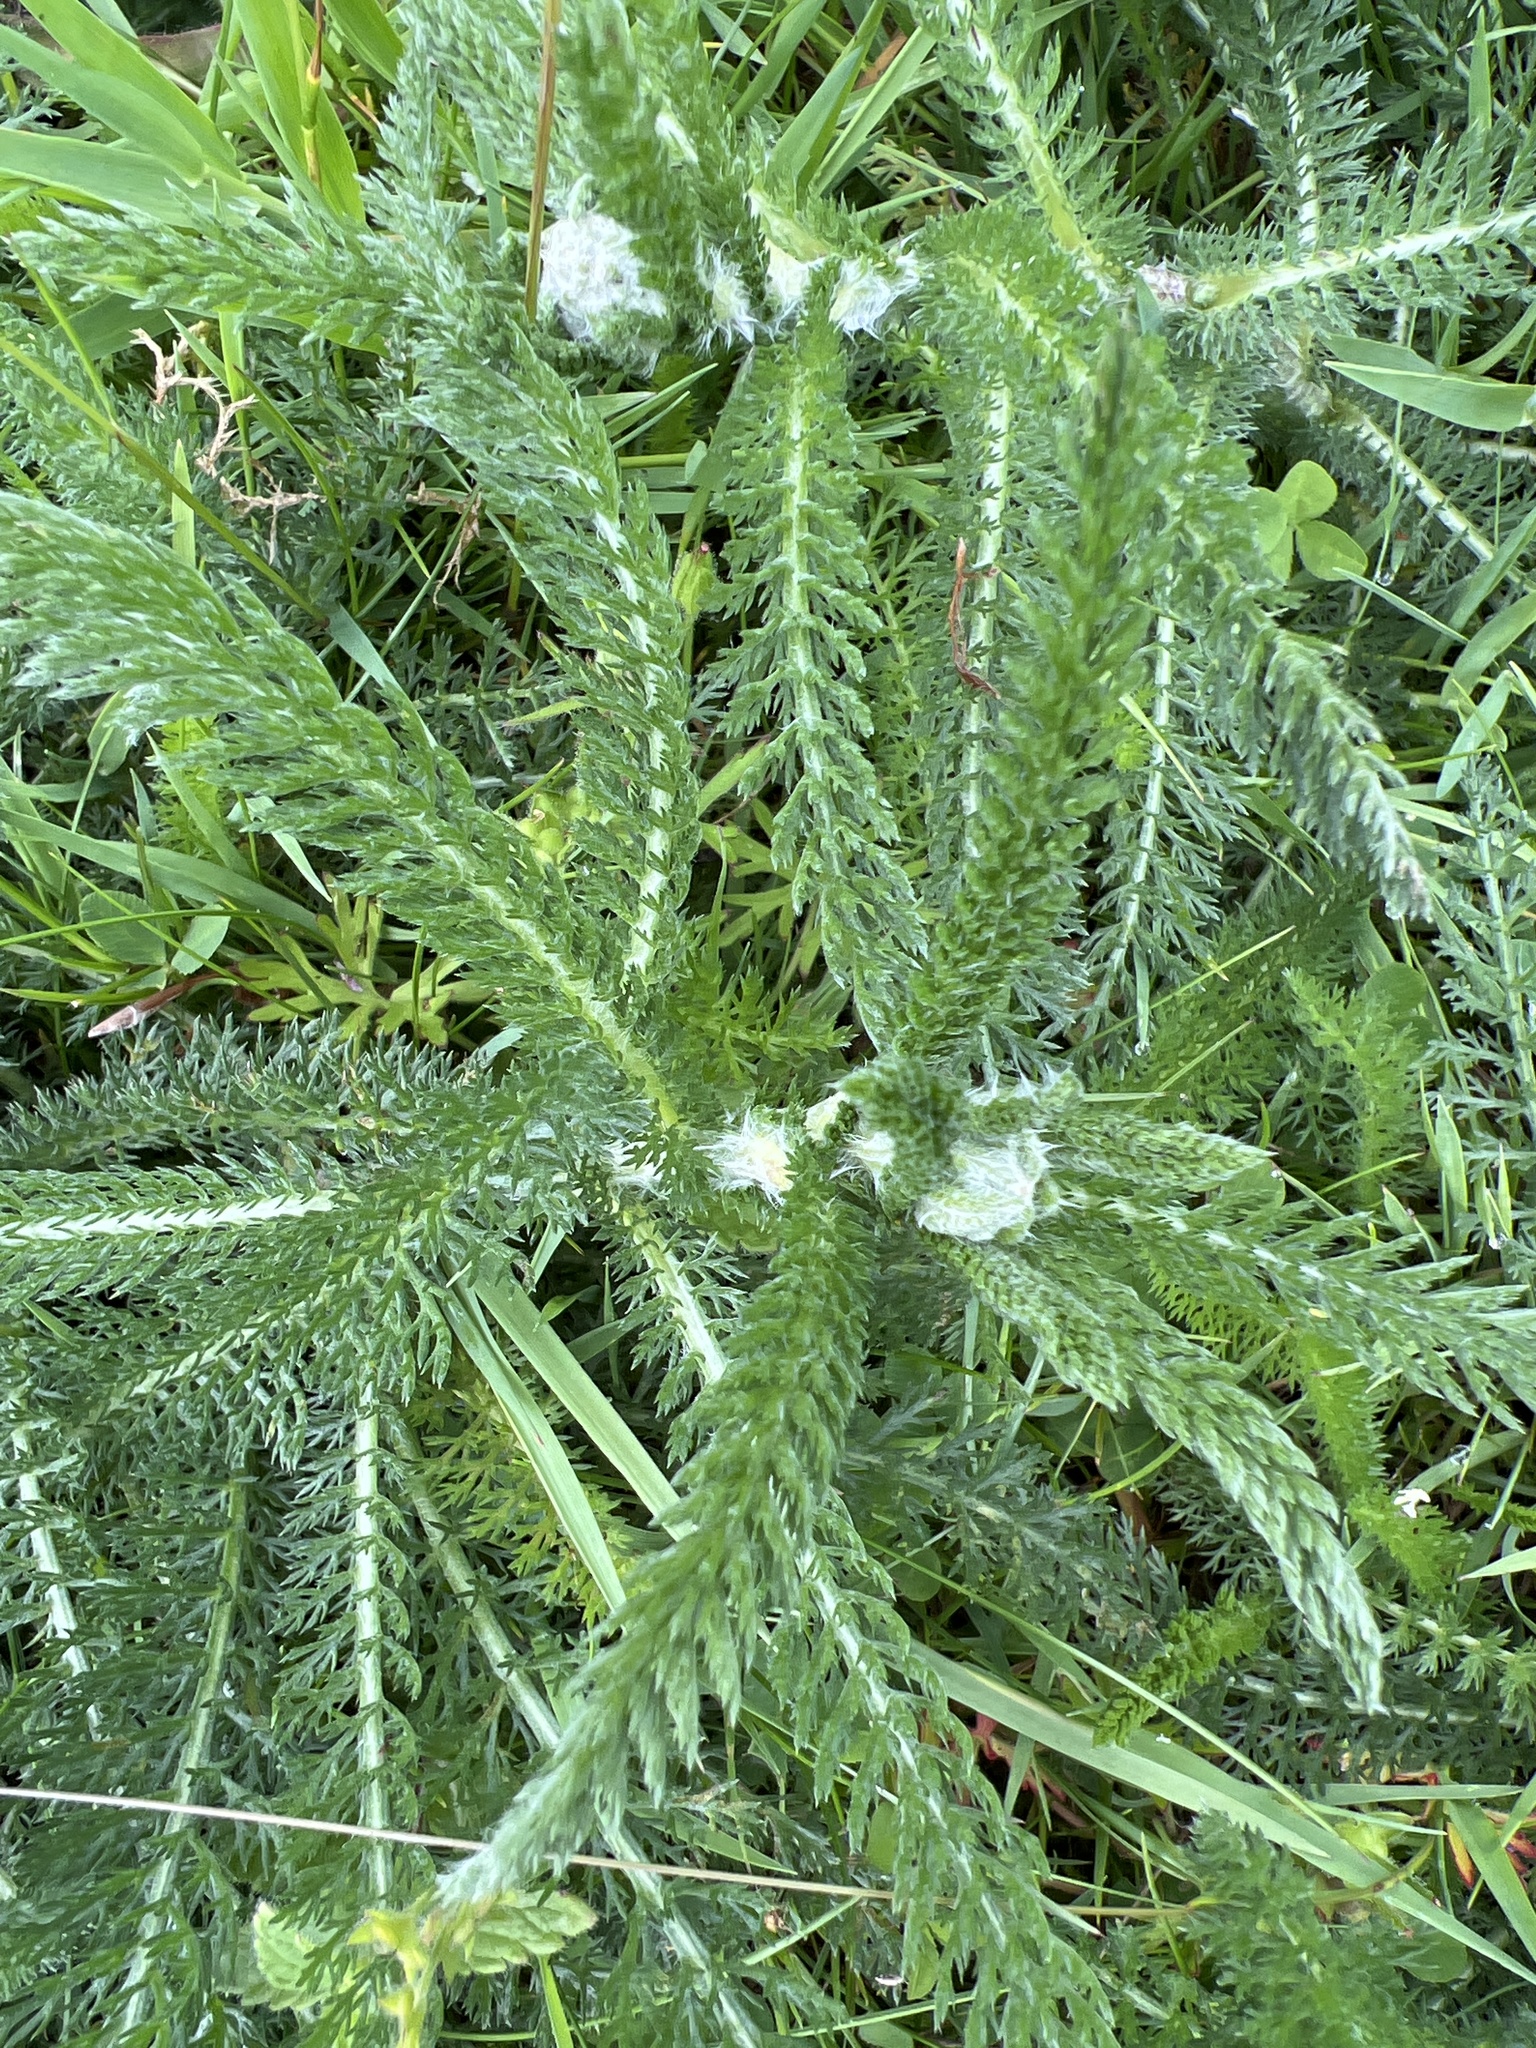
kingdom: Plantae
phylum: Tracheophyta
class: Magnoliopsida
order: Asterales
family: Asteraceae
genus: Achillea
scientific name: Achillea millefolium
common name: Yarrow
